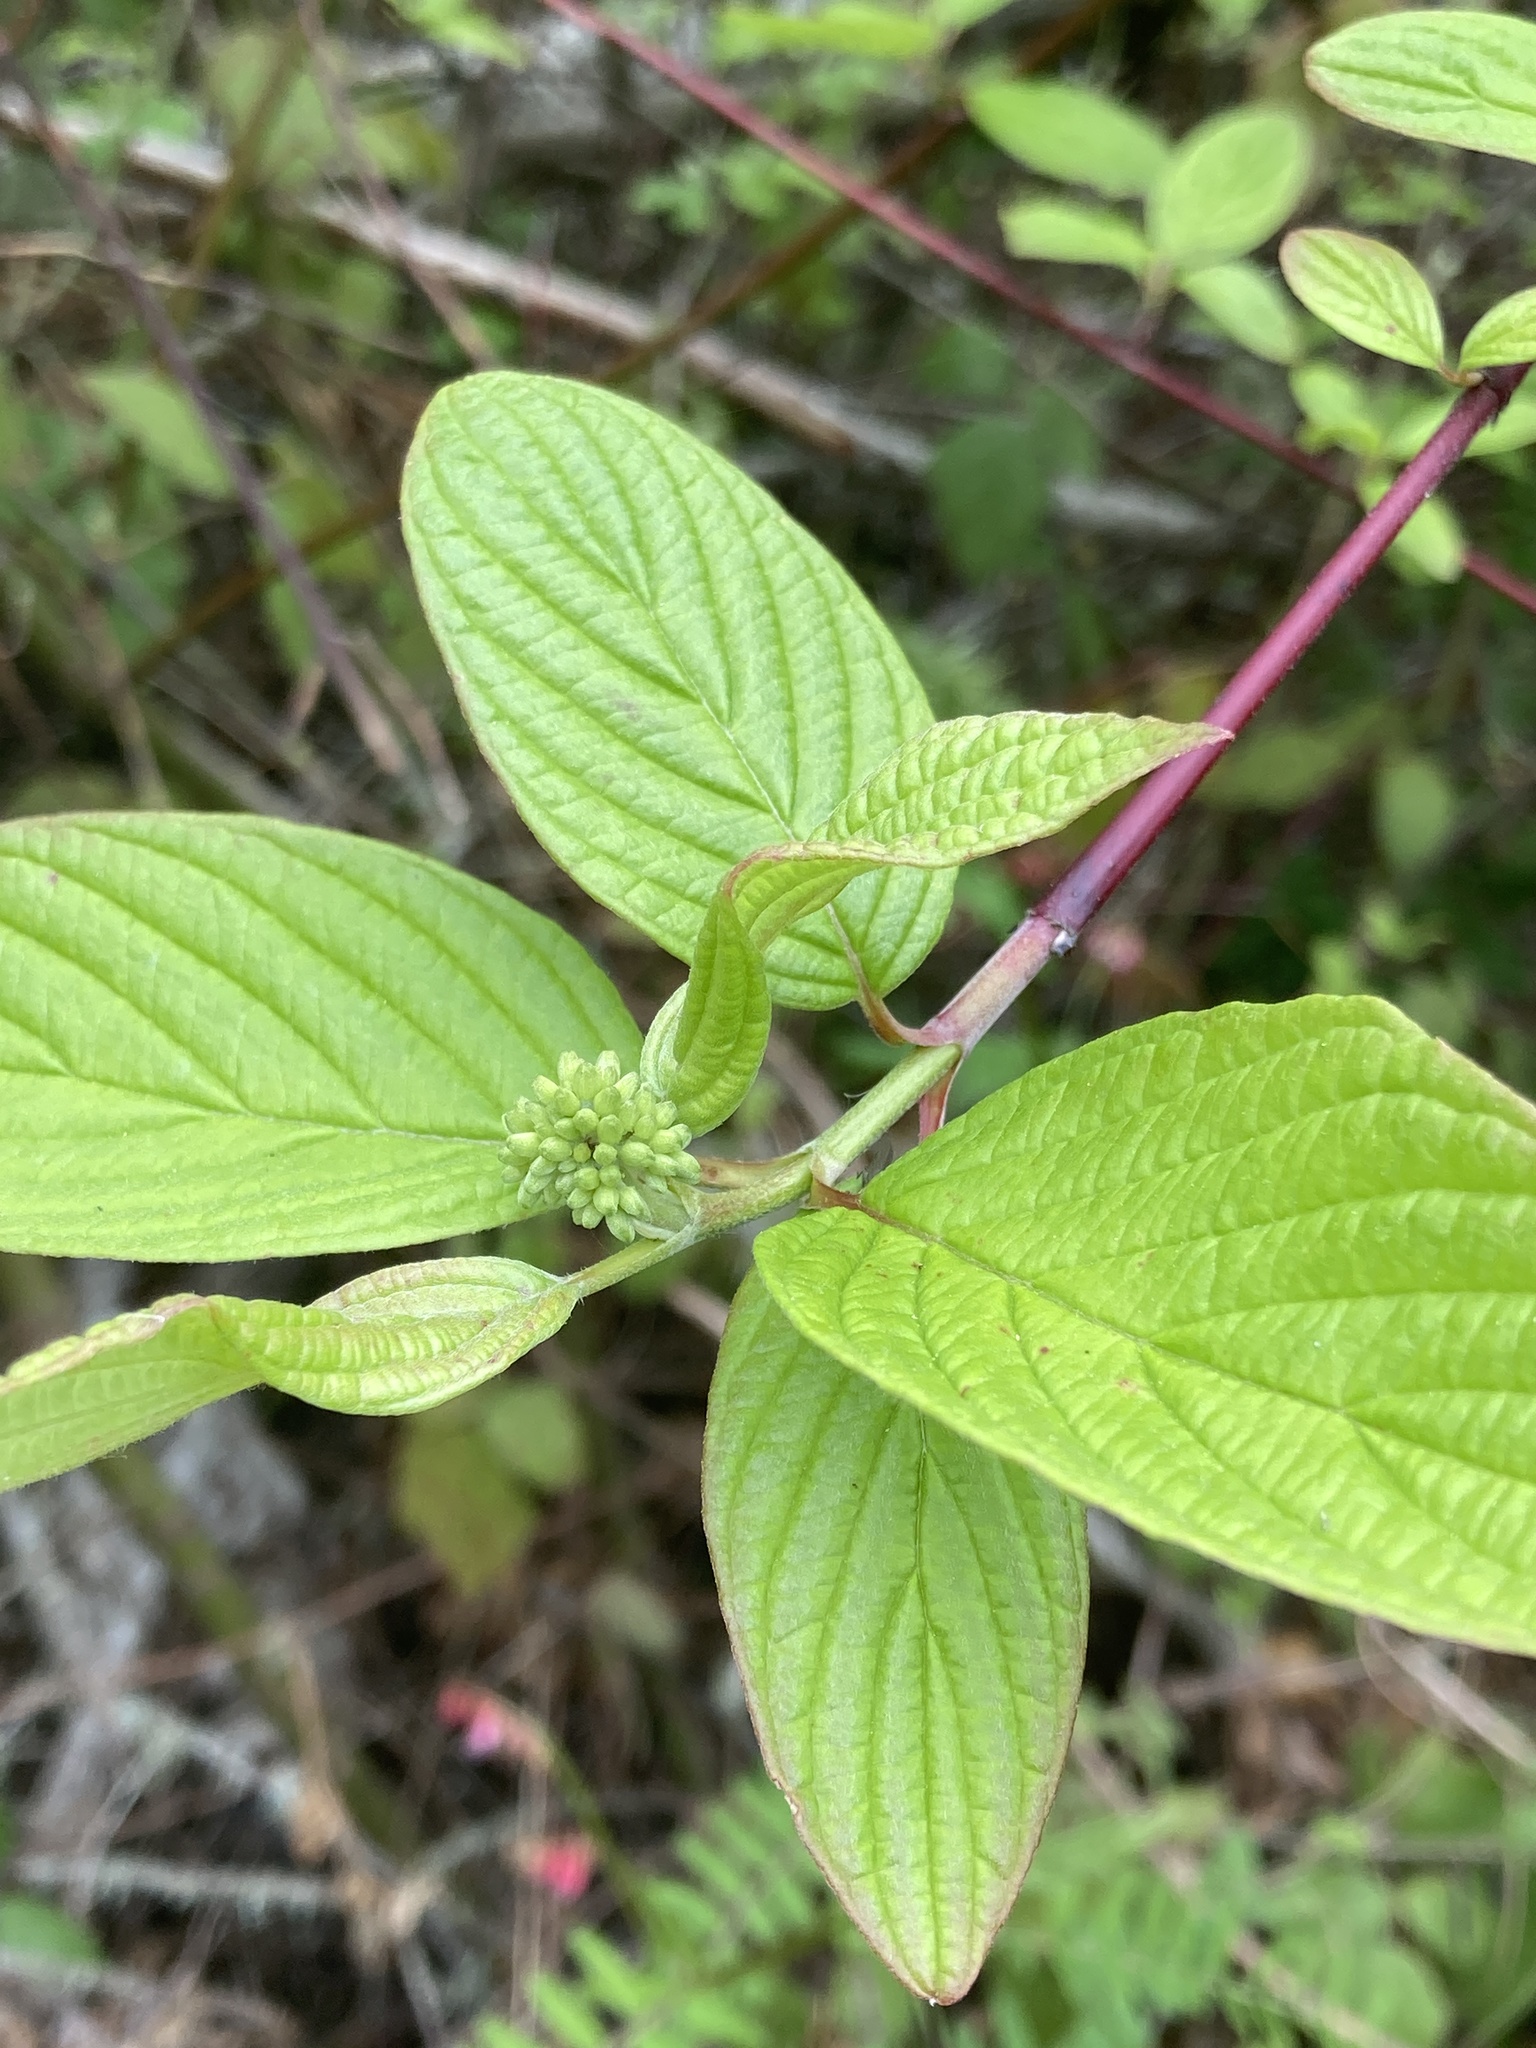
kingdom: Plantae
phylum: Tracheophyta
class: Magnoliopsida
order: Cornales
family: Cornaceae
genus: Cornus
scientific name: Cornus sericea
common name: Red-osier dogwood
